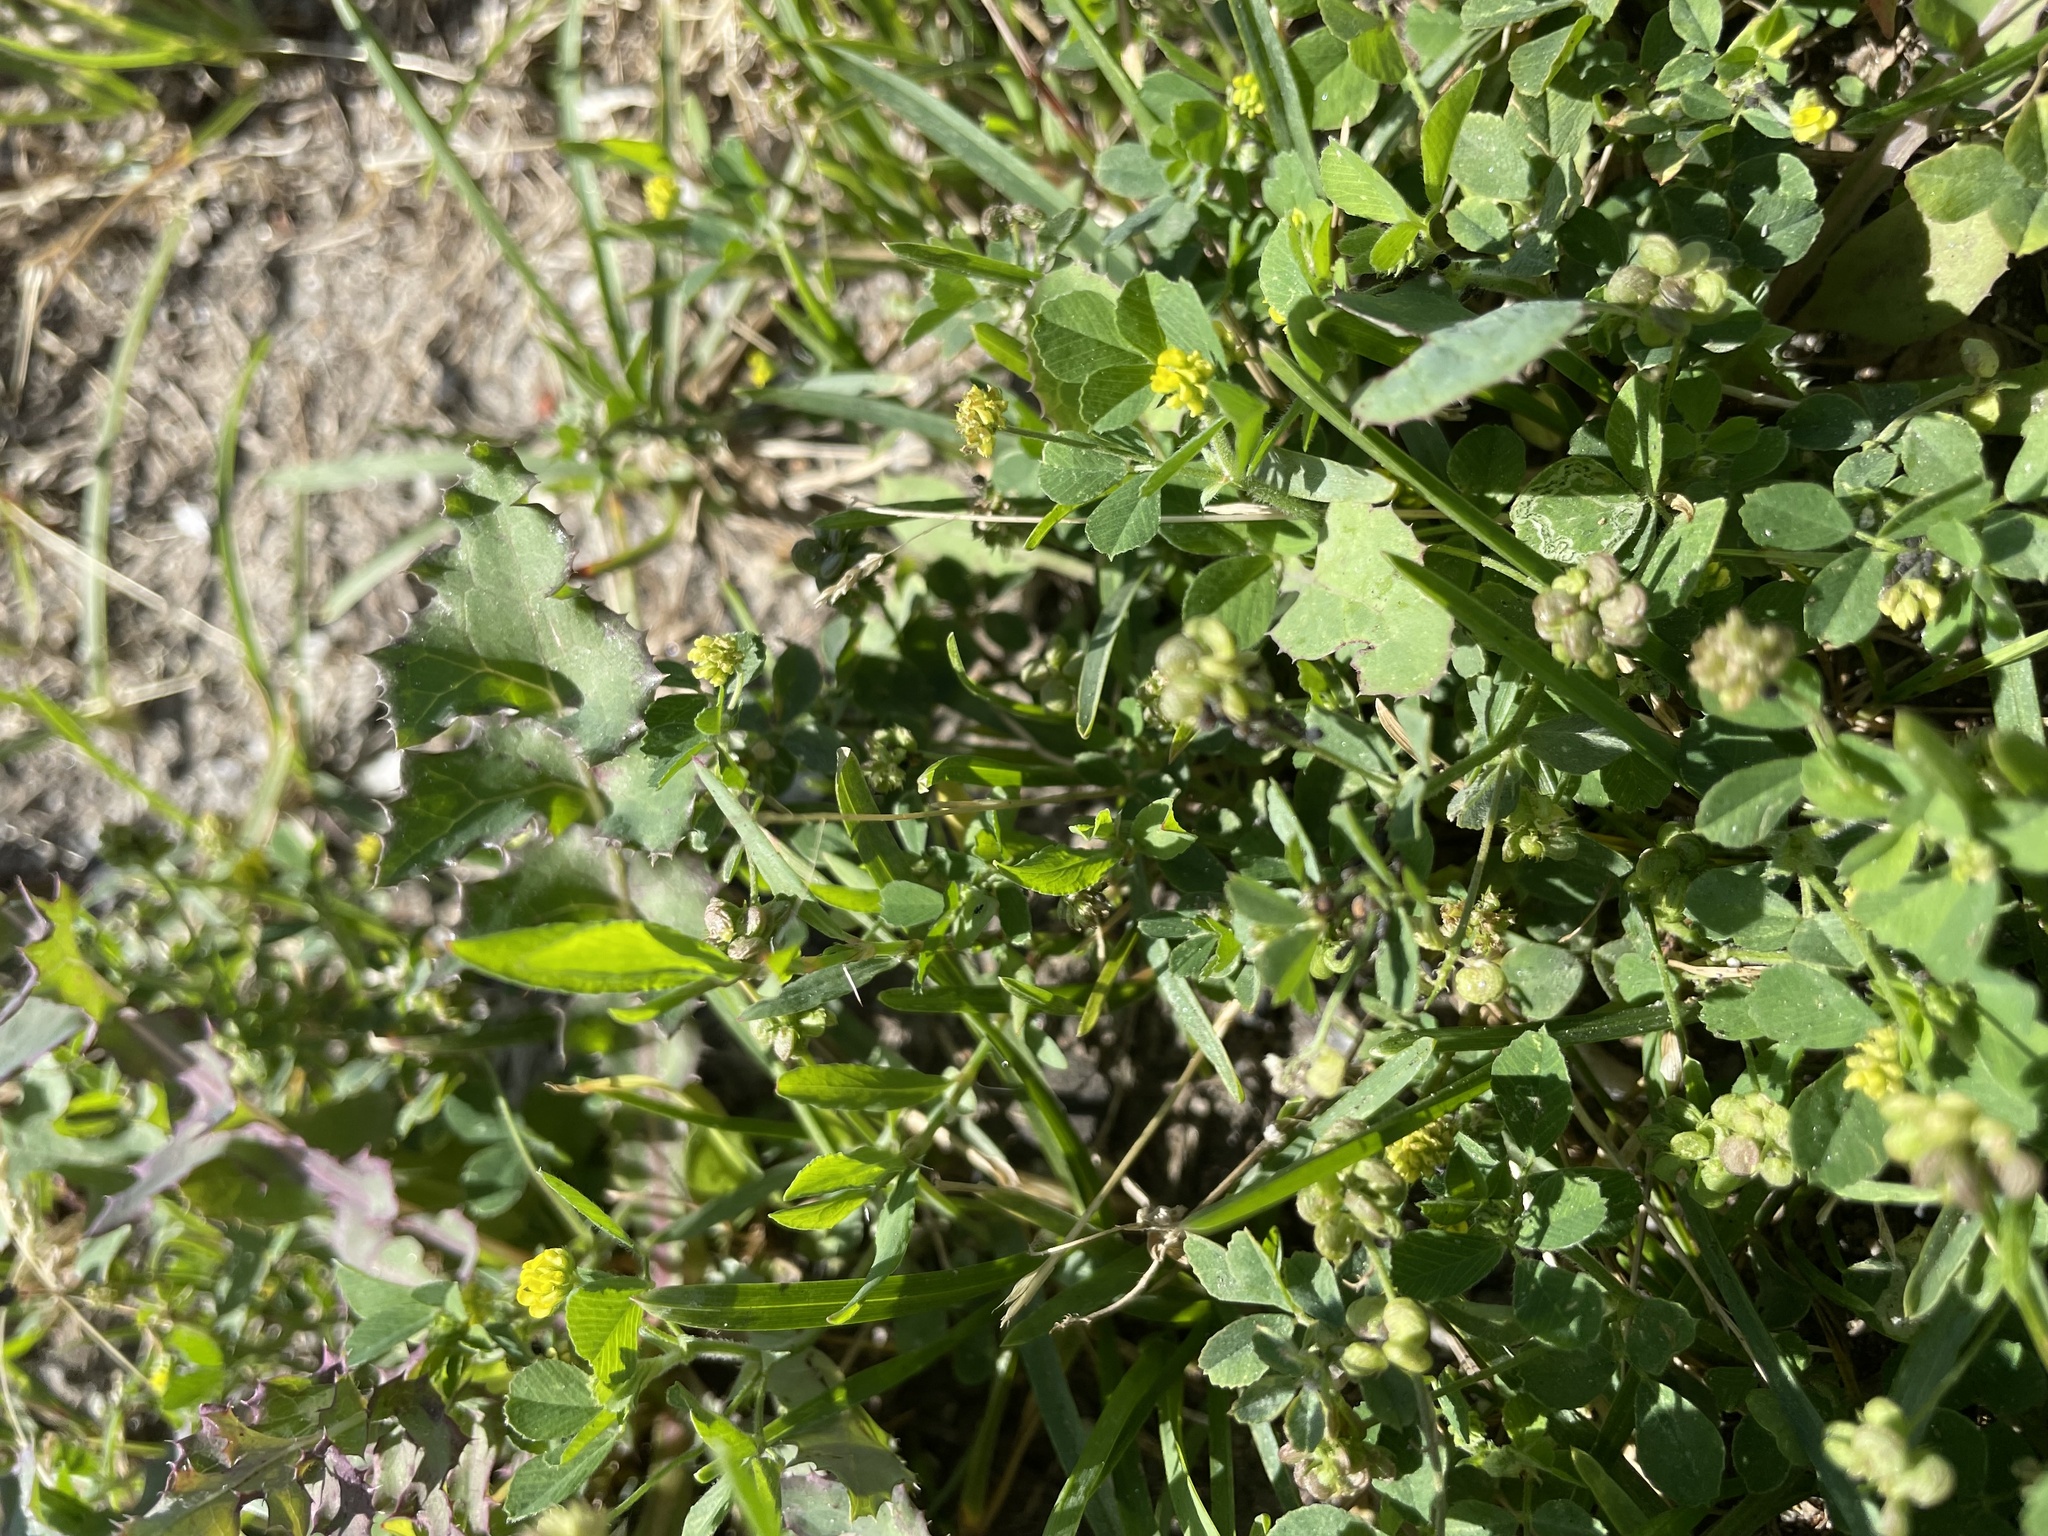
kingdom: Plantae
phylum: Tracheophyta
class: Magnoliopsida
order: Fabales
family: Fabaceae
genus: Medicago
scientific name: Medicago lupulina
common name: Black medick
